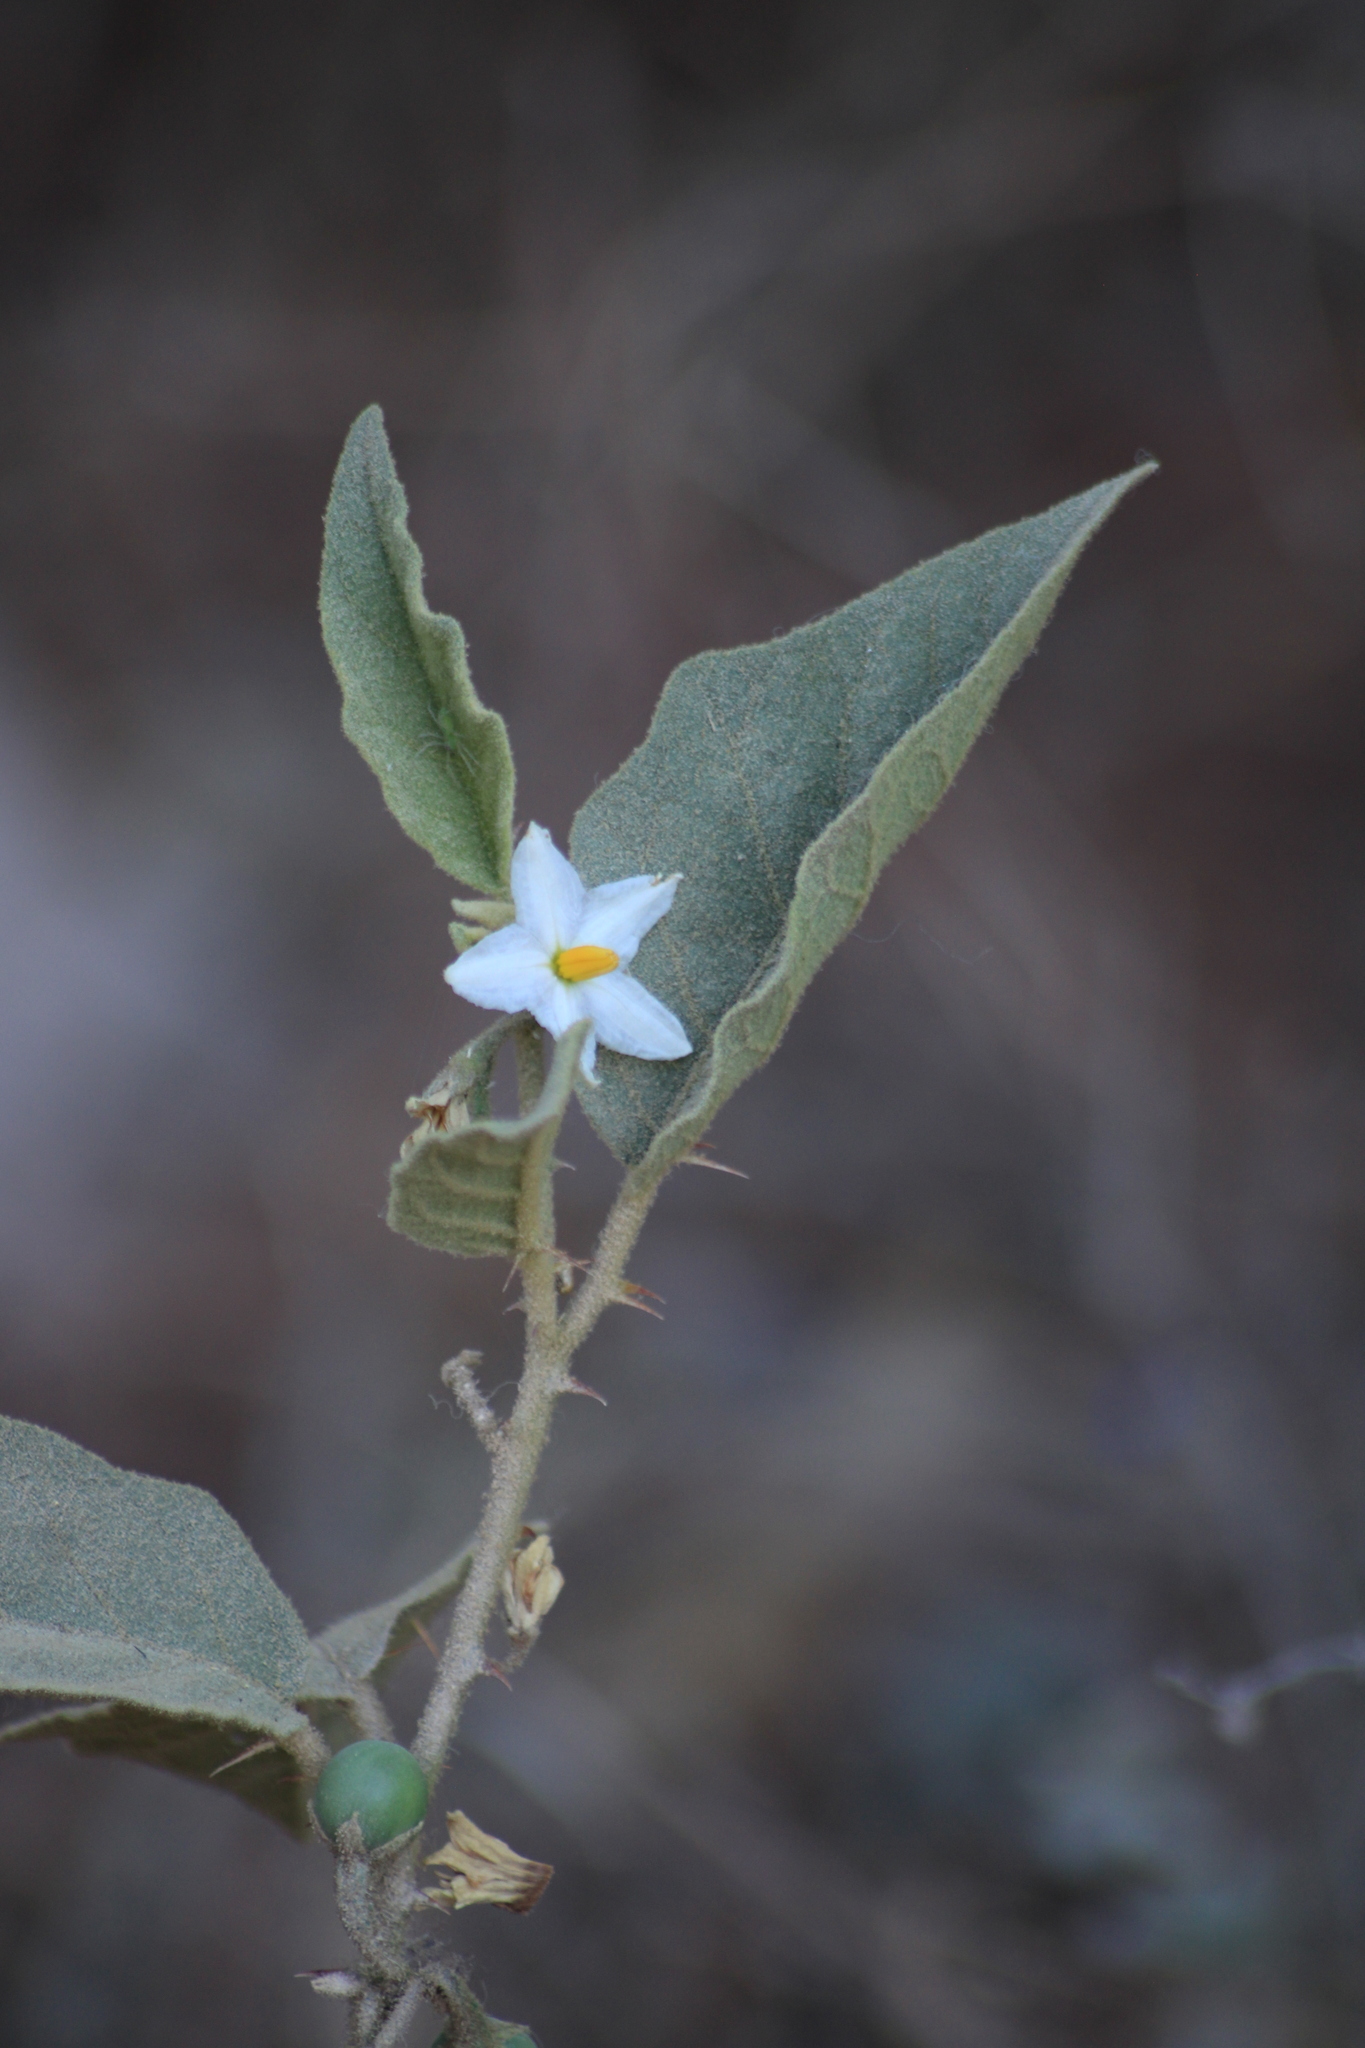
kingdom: Plantae
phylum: Tracheophyta
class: Magnoliopsida
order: Solanales
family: Solanaceae
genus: Solanum
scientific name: Solanum ferrugineum
